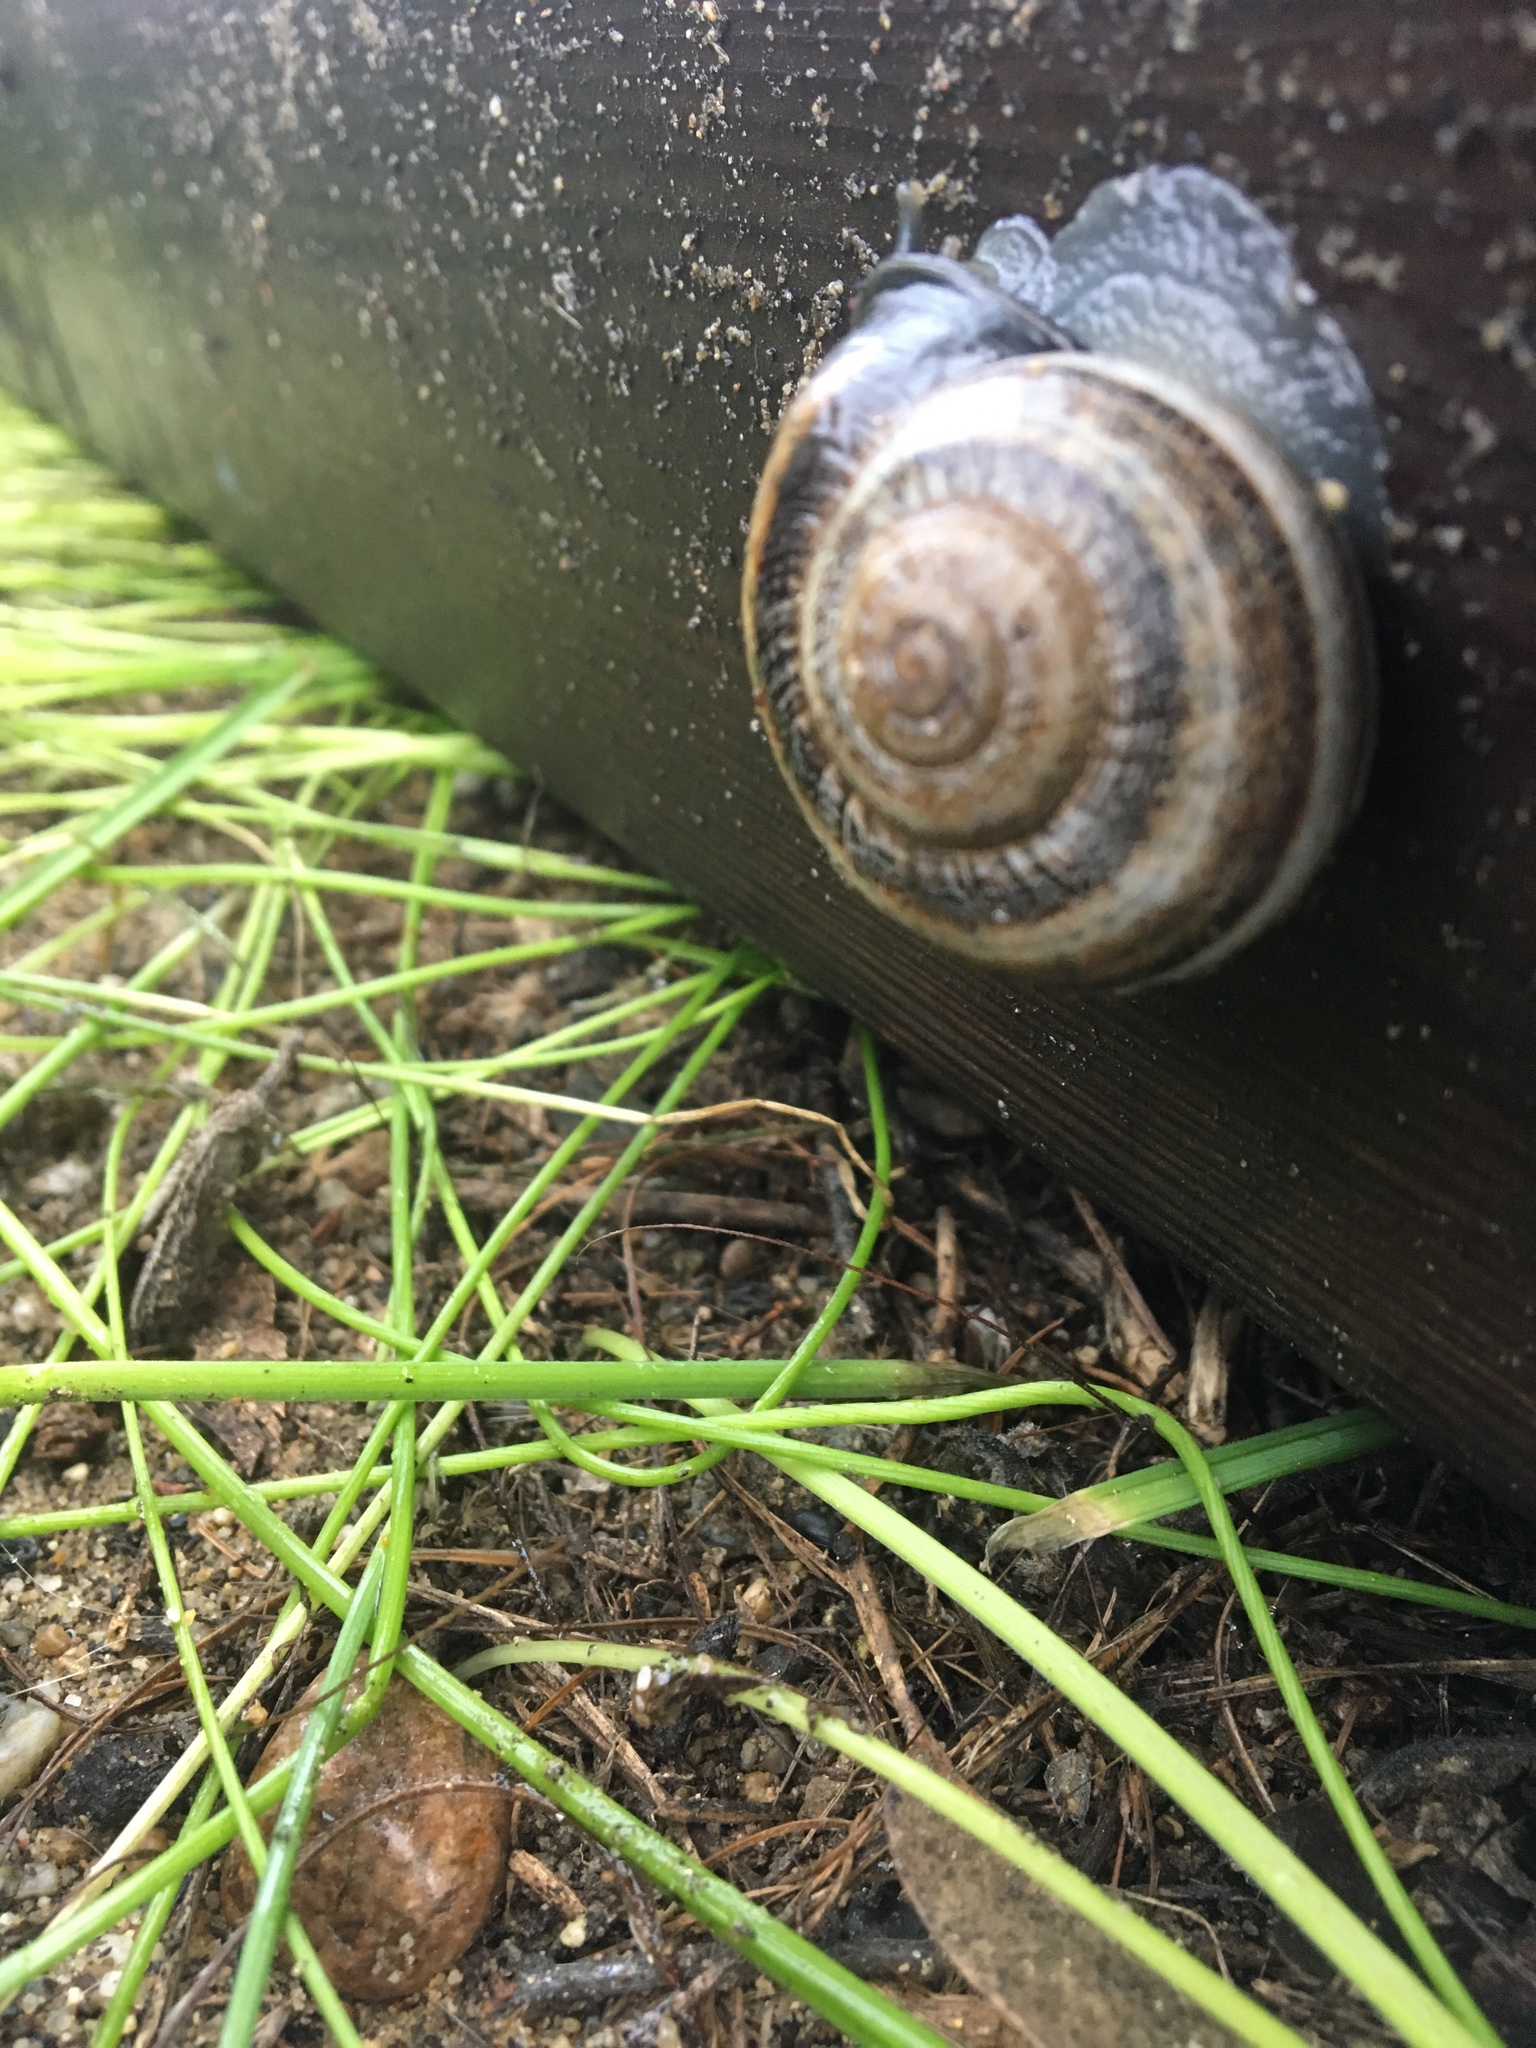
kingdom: Animalia
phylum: Mollusca
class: Gastropoda
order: Stylommatophora
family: Helicidae
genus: Otala
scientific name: Otala lactea
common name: Milk snail
